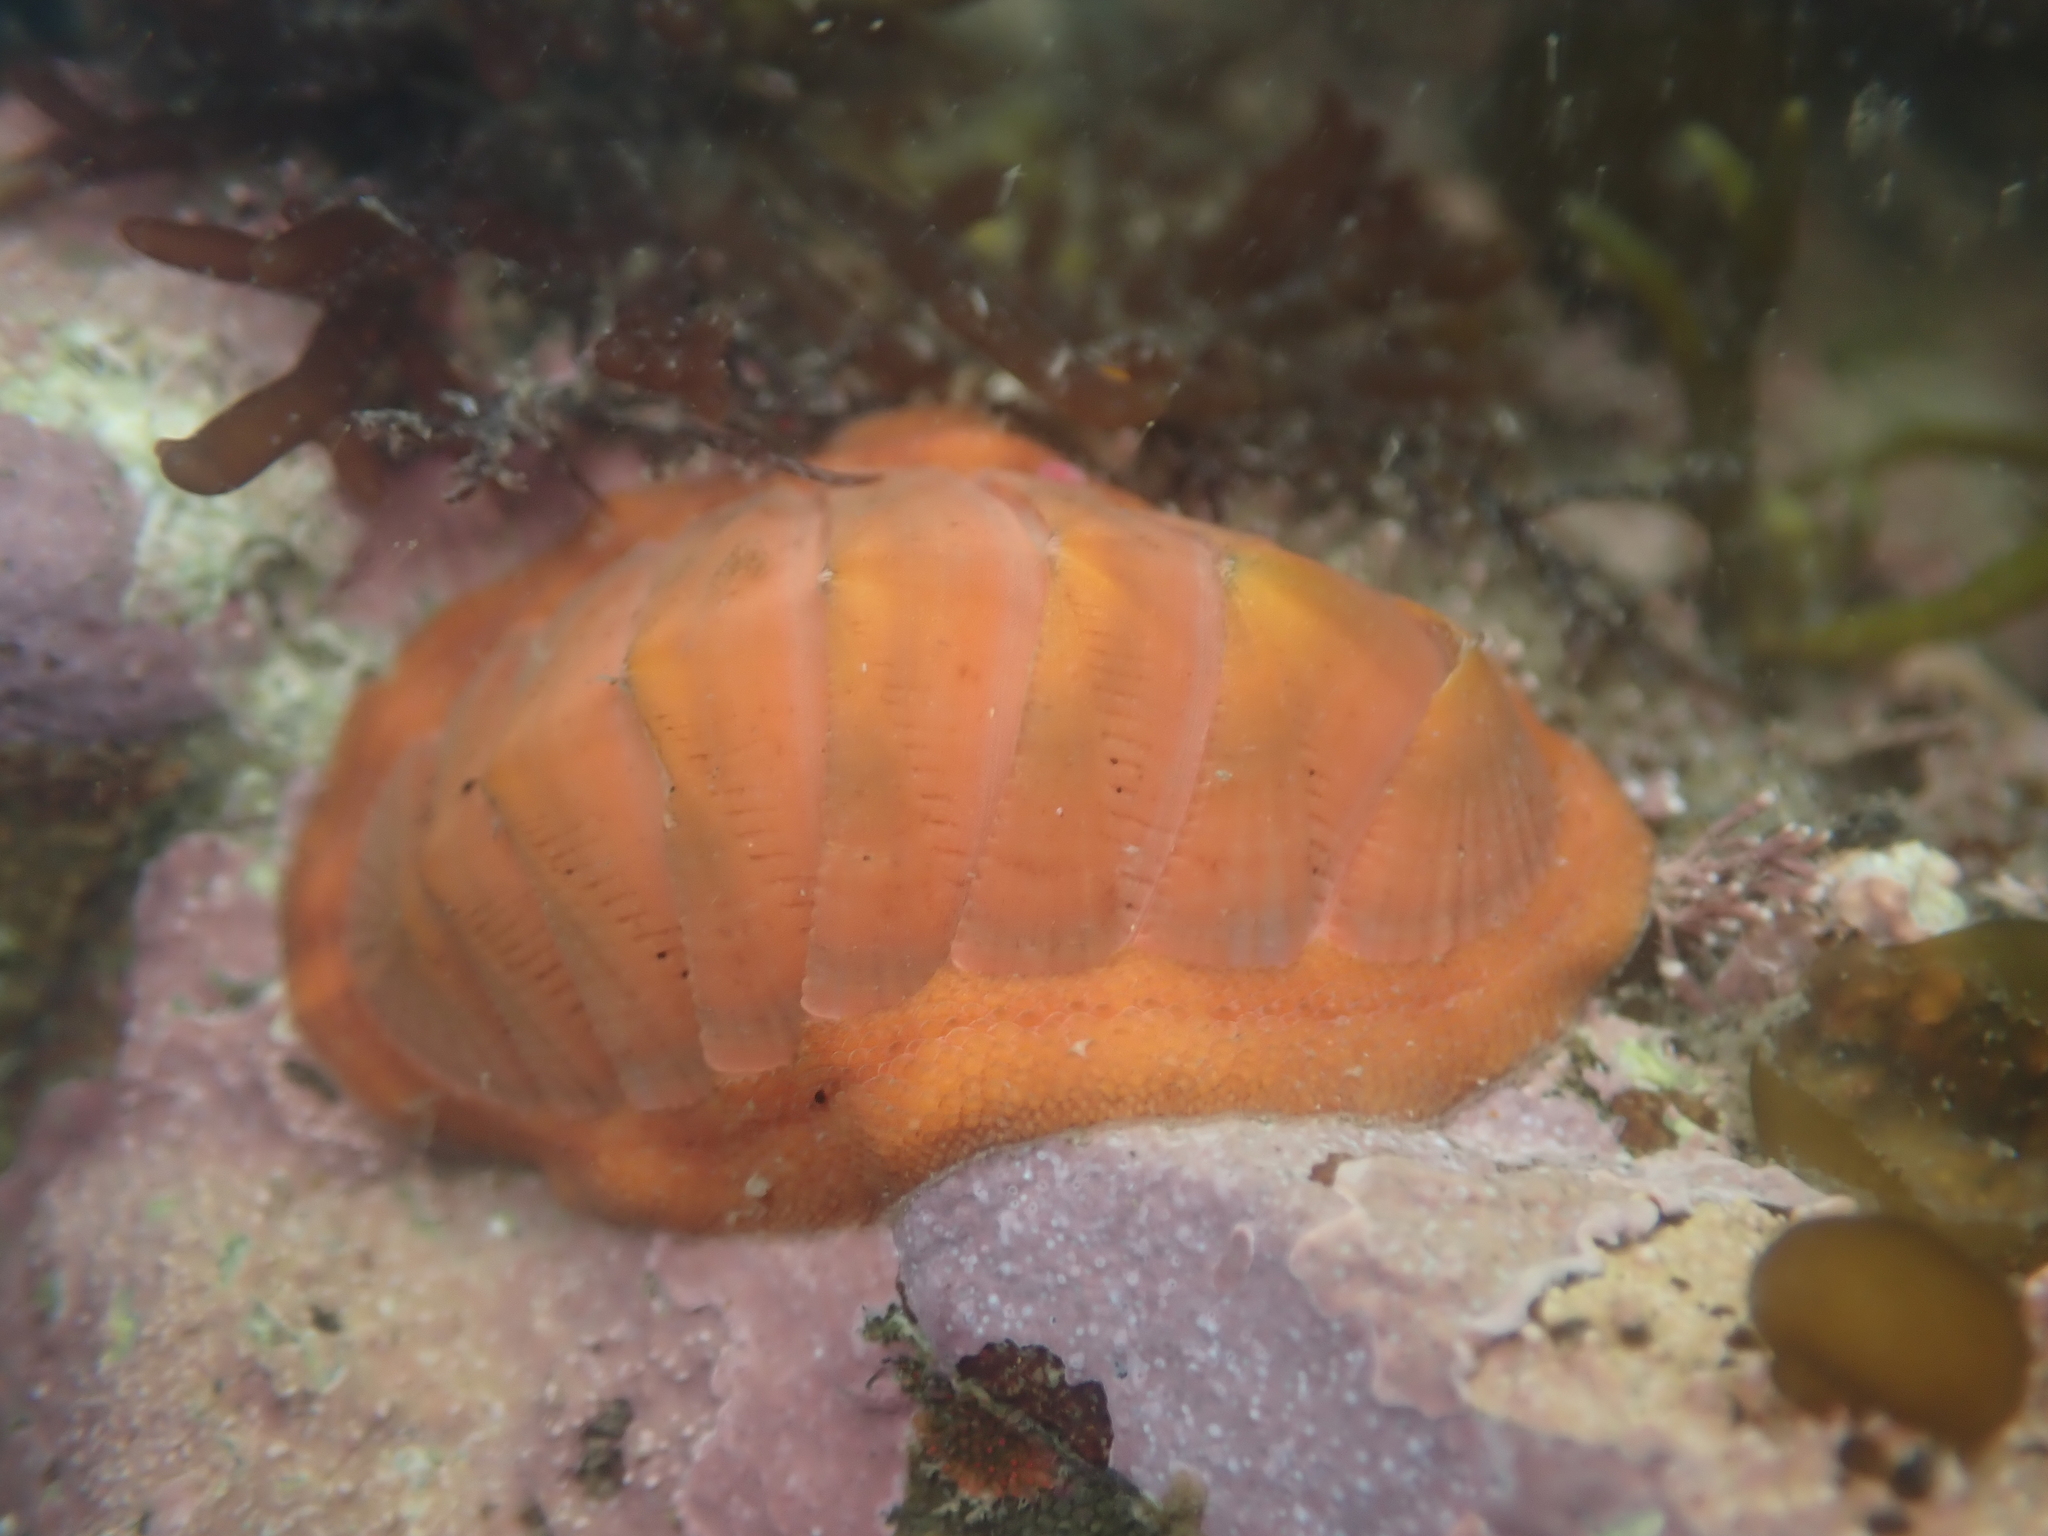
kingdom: Animalia
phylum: Mollusca
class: Polyplacophora
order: Chitonida
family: Chitonidae
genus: Chiton
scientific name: Chiton glaucus
